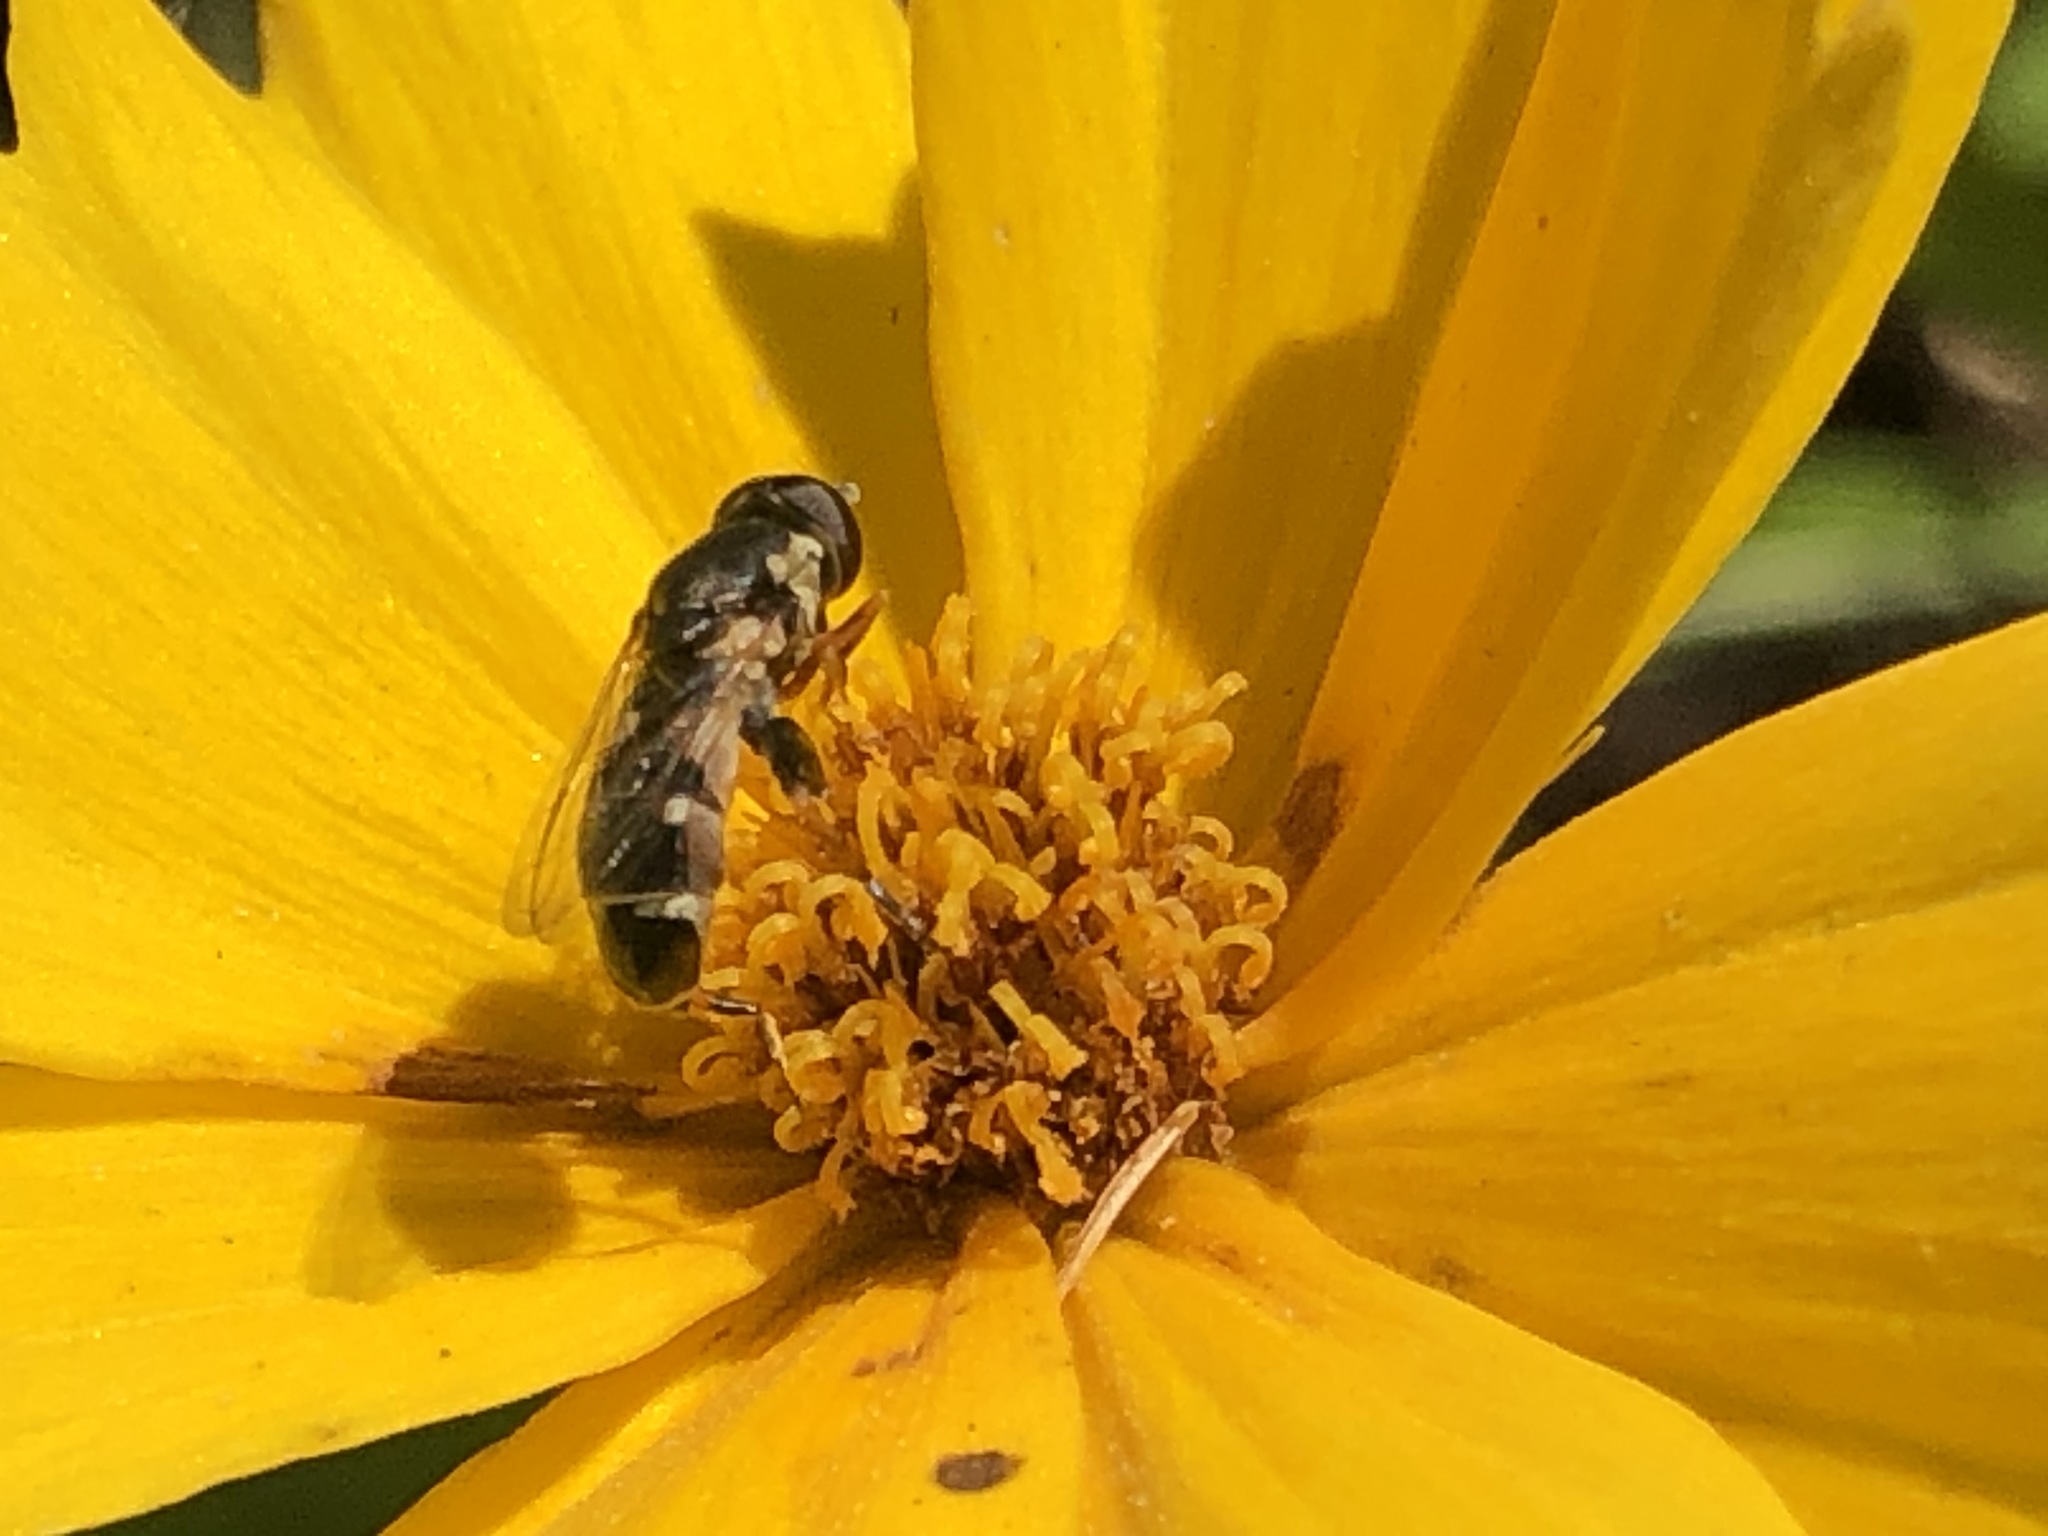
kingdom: Animalia
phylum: Arthropoda
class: Insecta
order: Diptera
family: Syrphidae
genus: Syritta
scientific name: Syritta pipiens
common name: Hover fly
